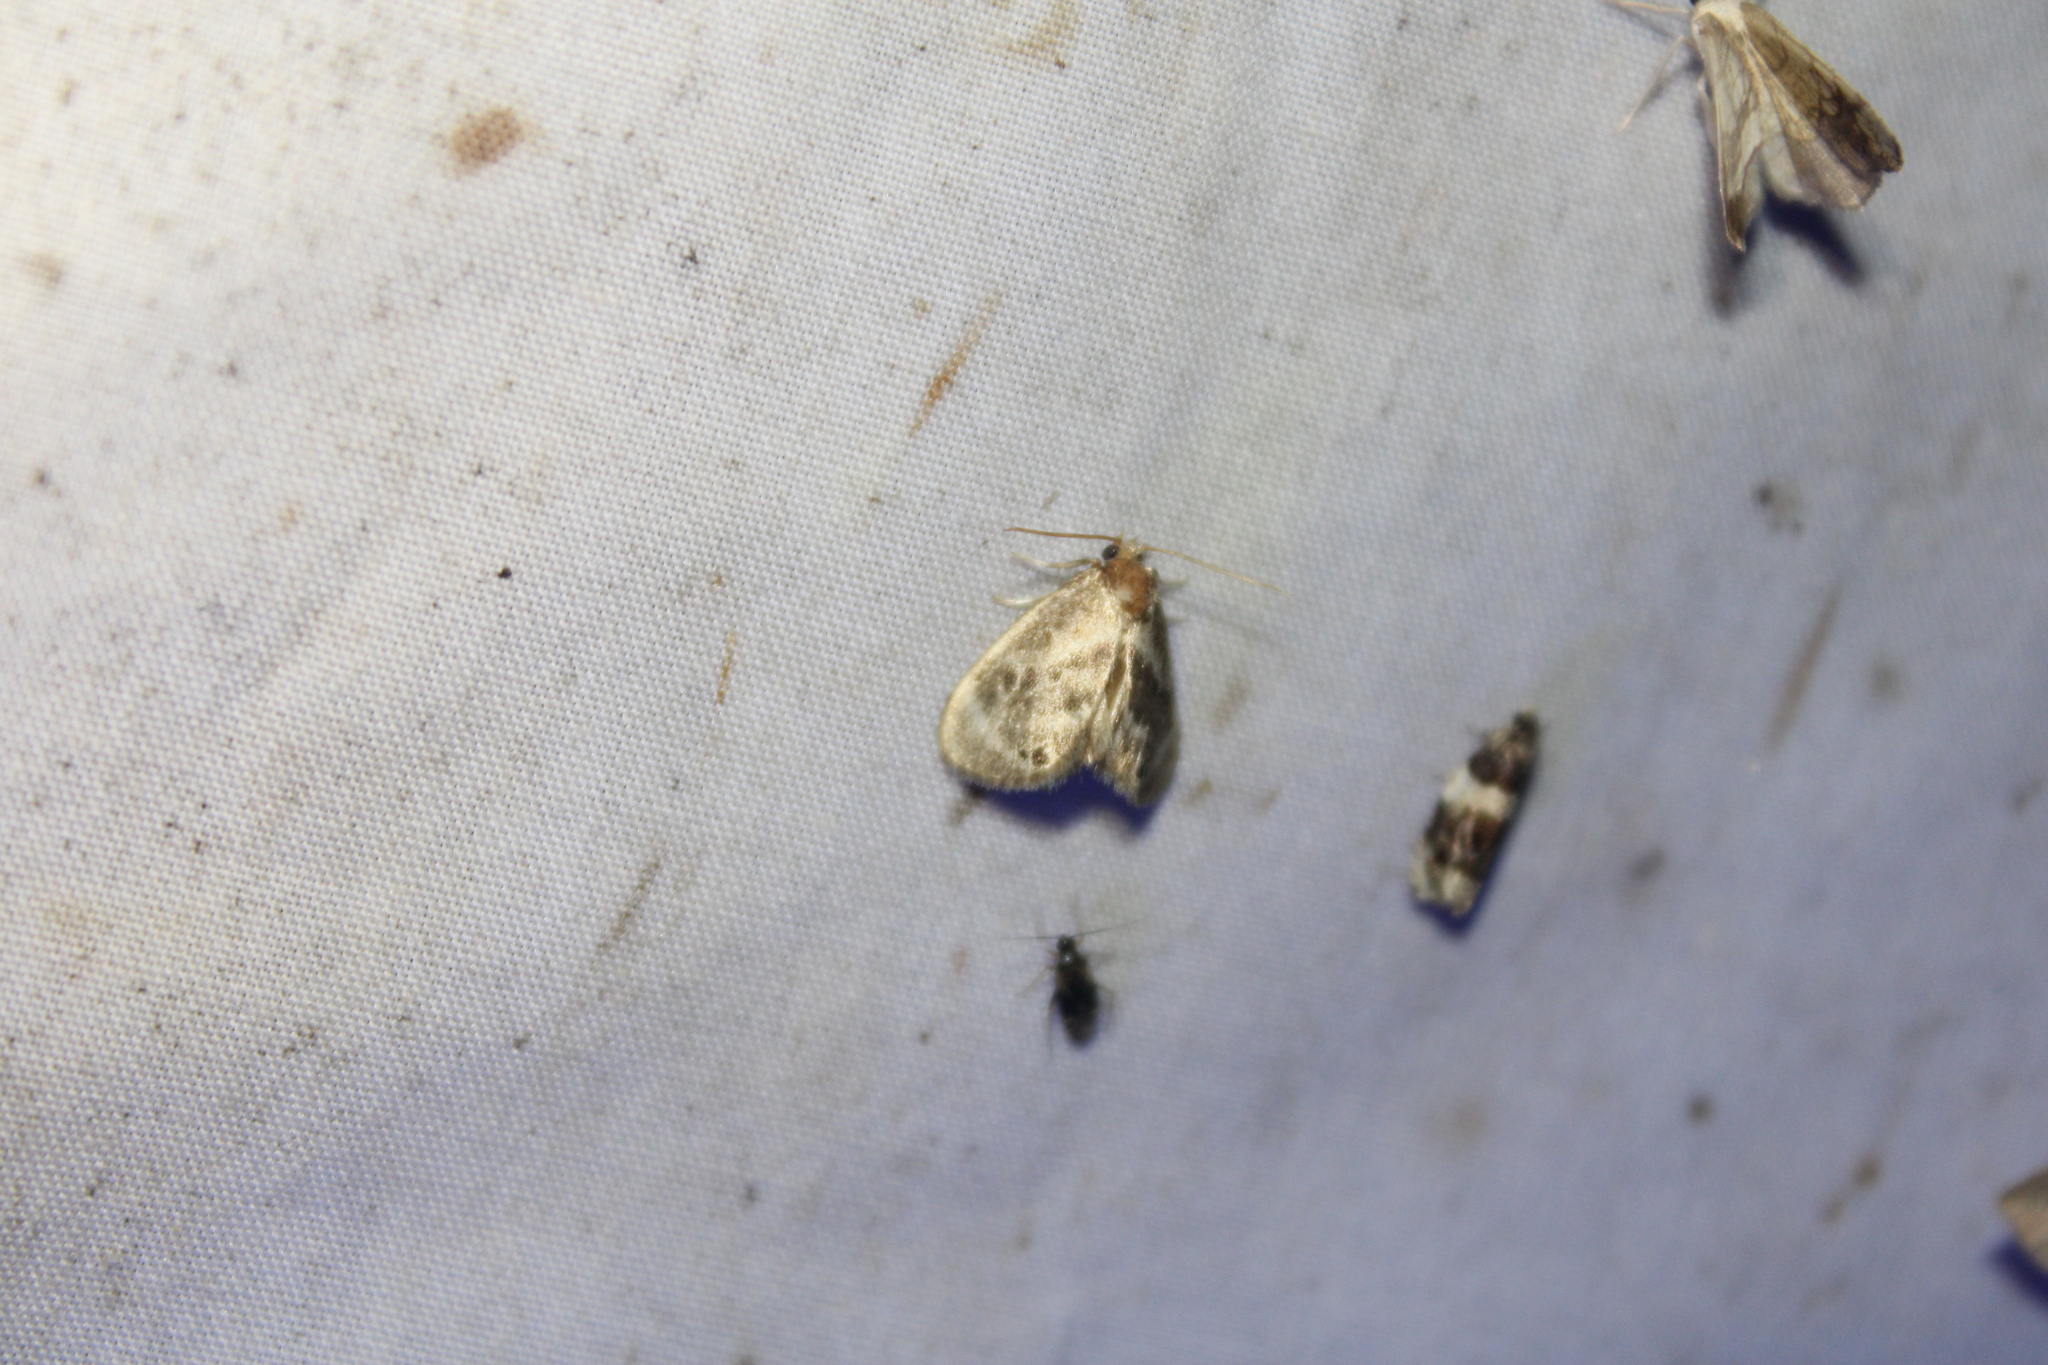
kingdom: Animalia
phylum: Arthropoda
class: Insecta
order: Lepidoptera
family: Limacodidae
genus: Packardia
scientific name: Packardia elegans
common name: Elegant tailed slug moth
